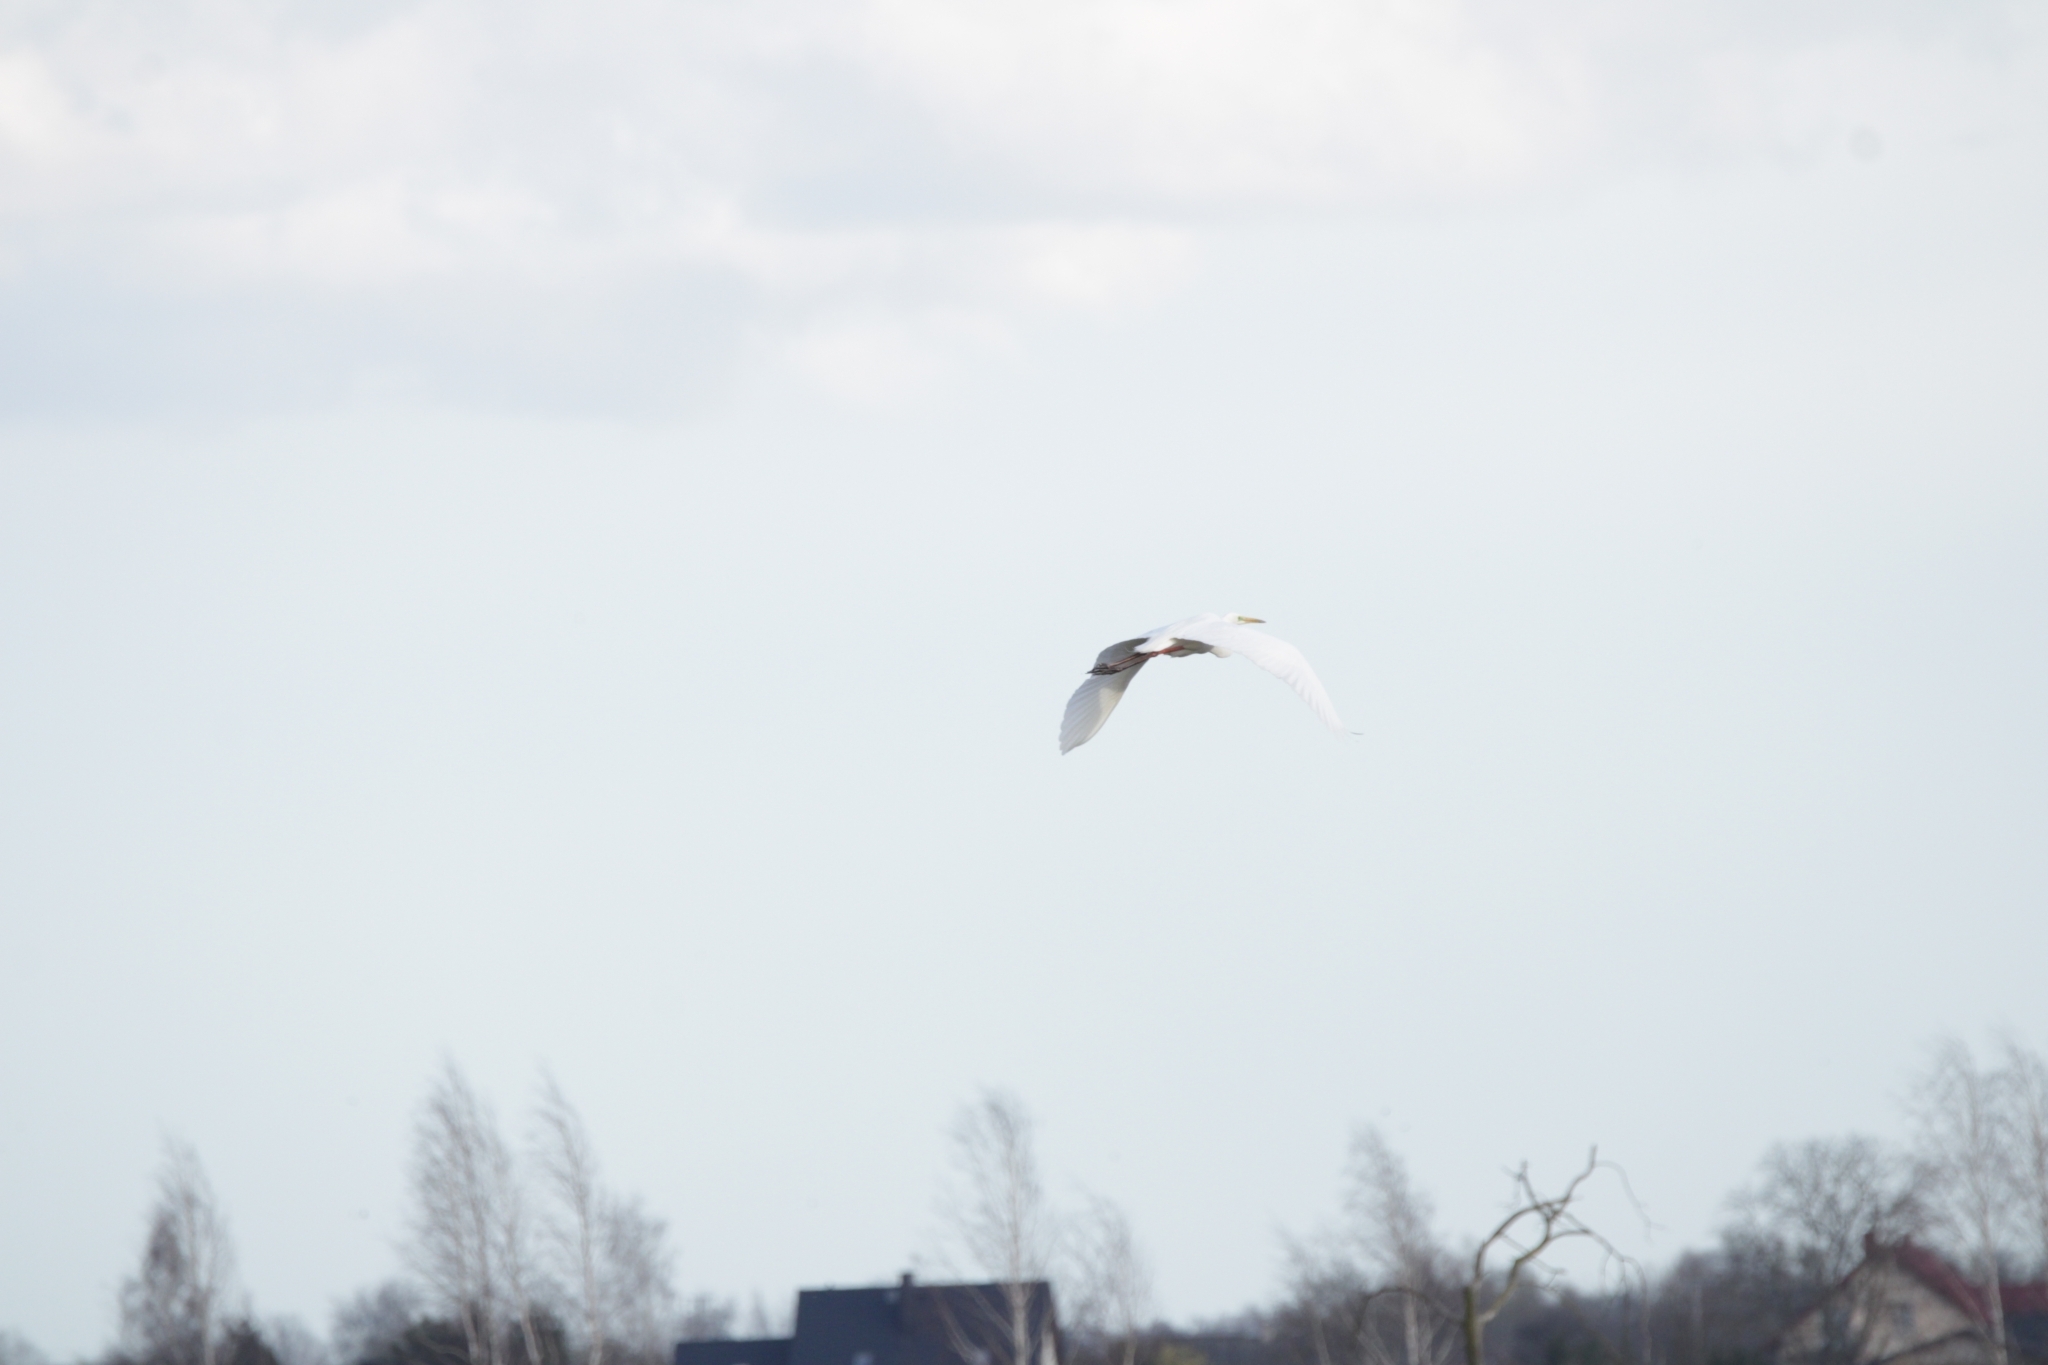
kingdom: Animalia
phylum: Chordata
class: Aves
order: Pelecaniformes
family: Ardeidae
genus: Ardea
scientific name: Ardea alba
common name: Great egret
